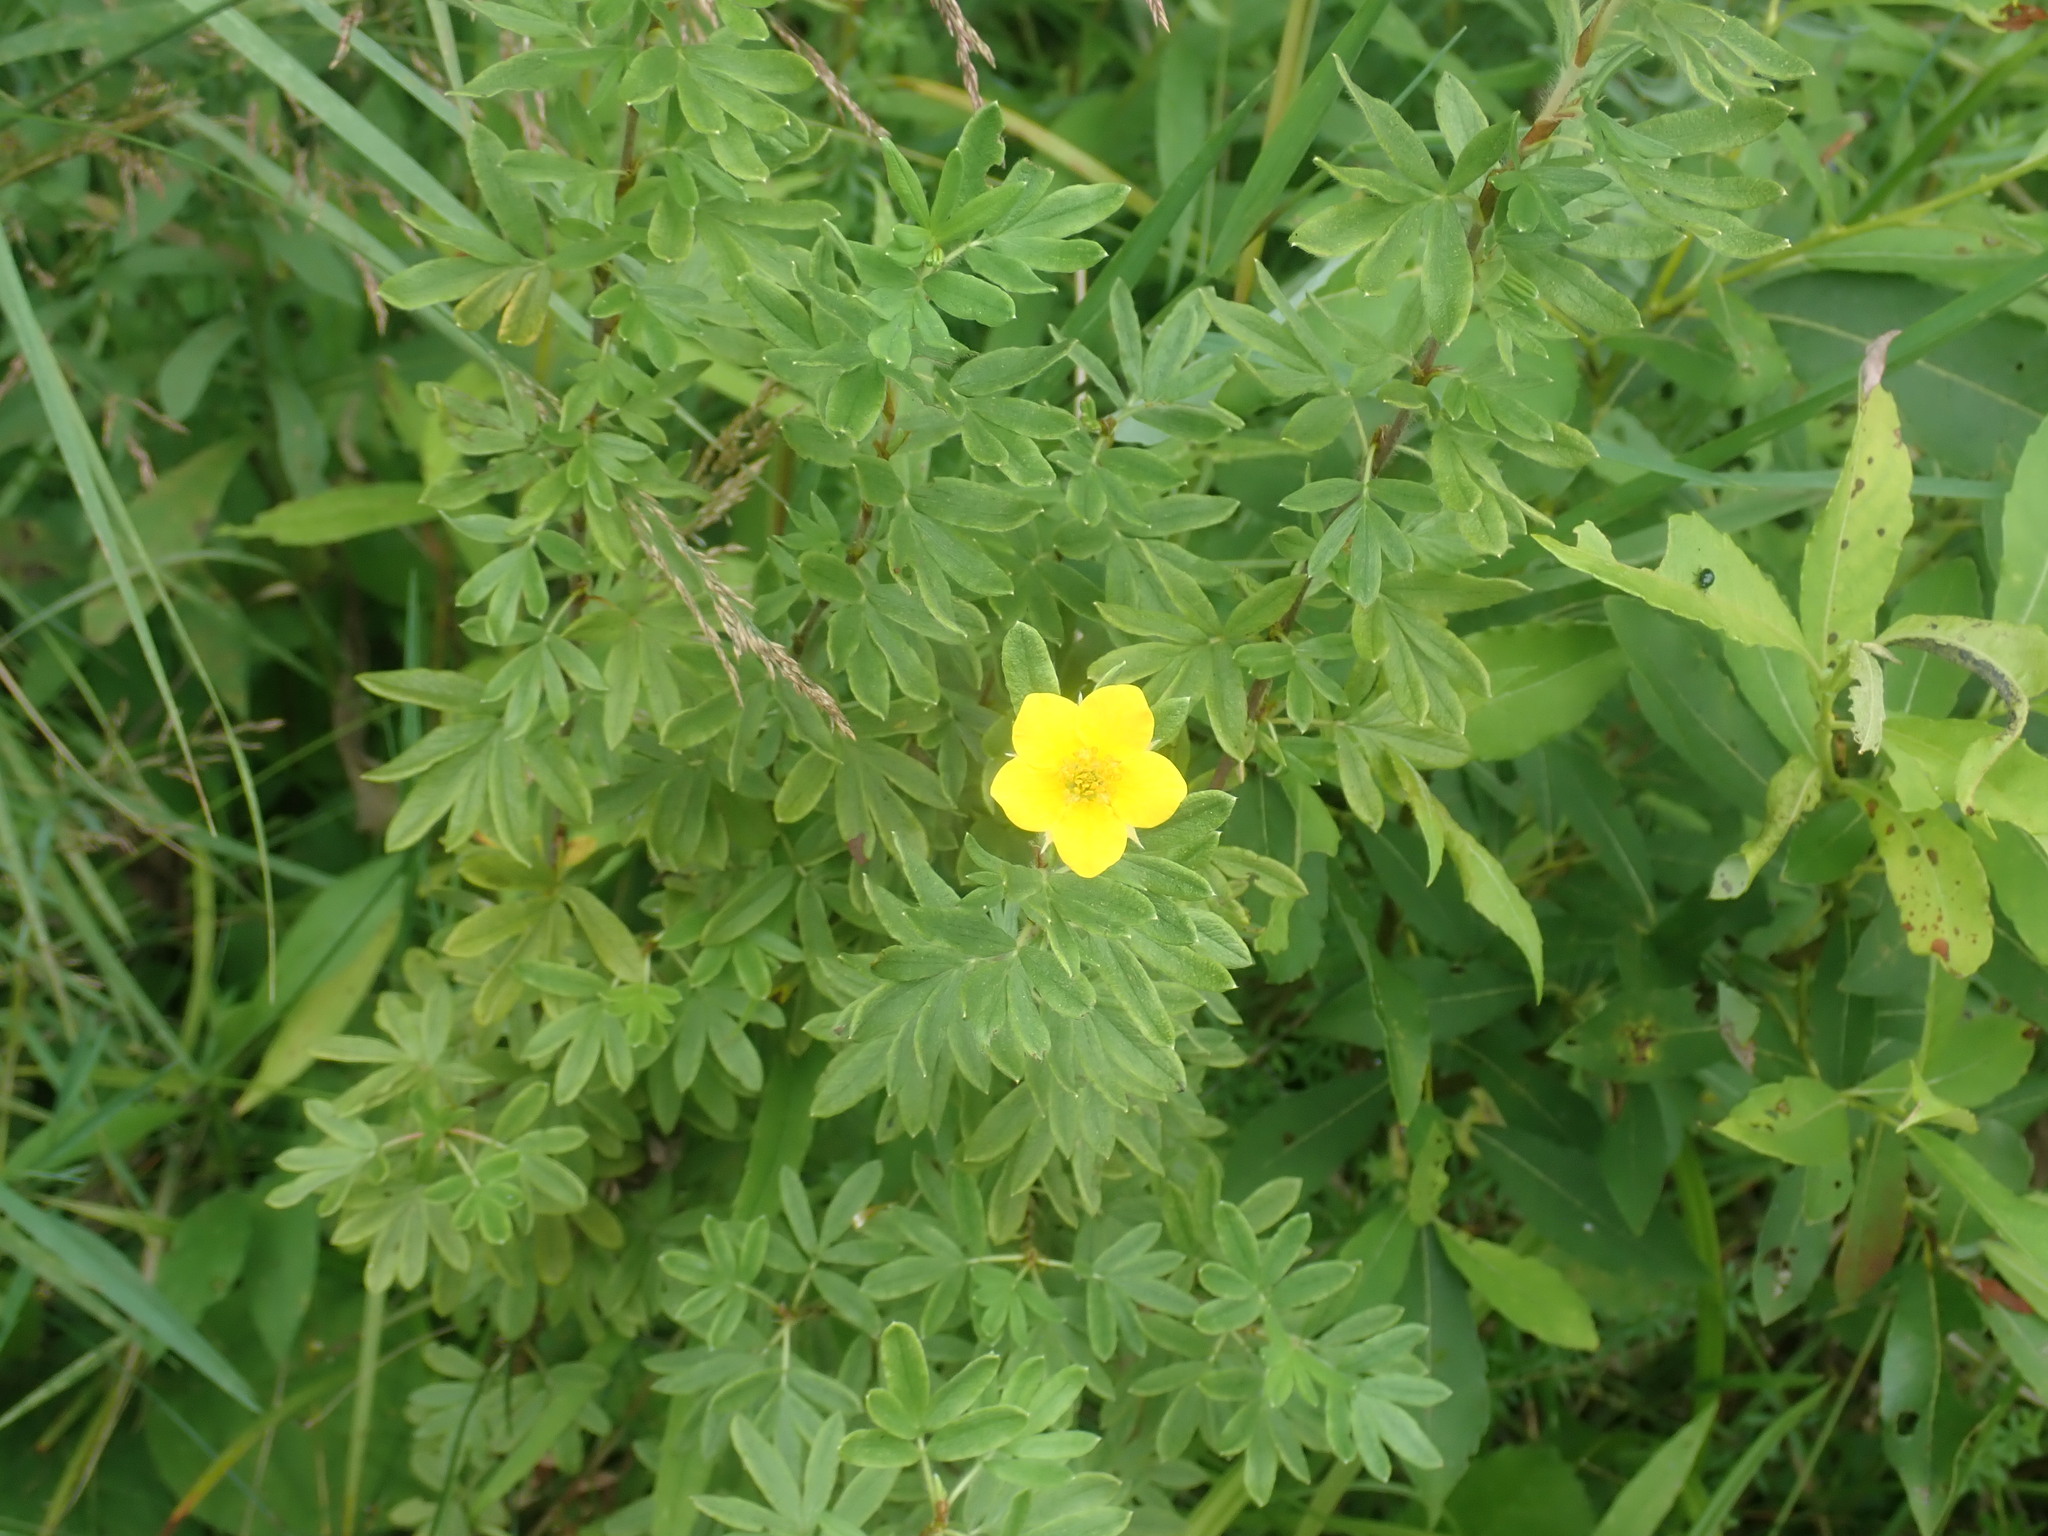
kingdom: Plantae
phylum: Tracheophyta
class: Magnoliopsida
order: Rosales
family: Rosaceae
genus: Dasiphora
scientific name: Dasiphora fruticosa
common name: Shrubby cinquefoil
